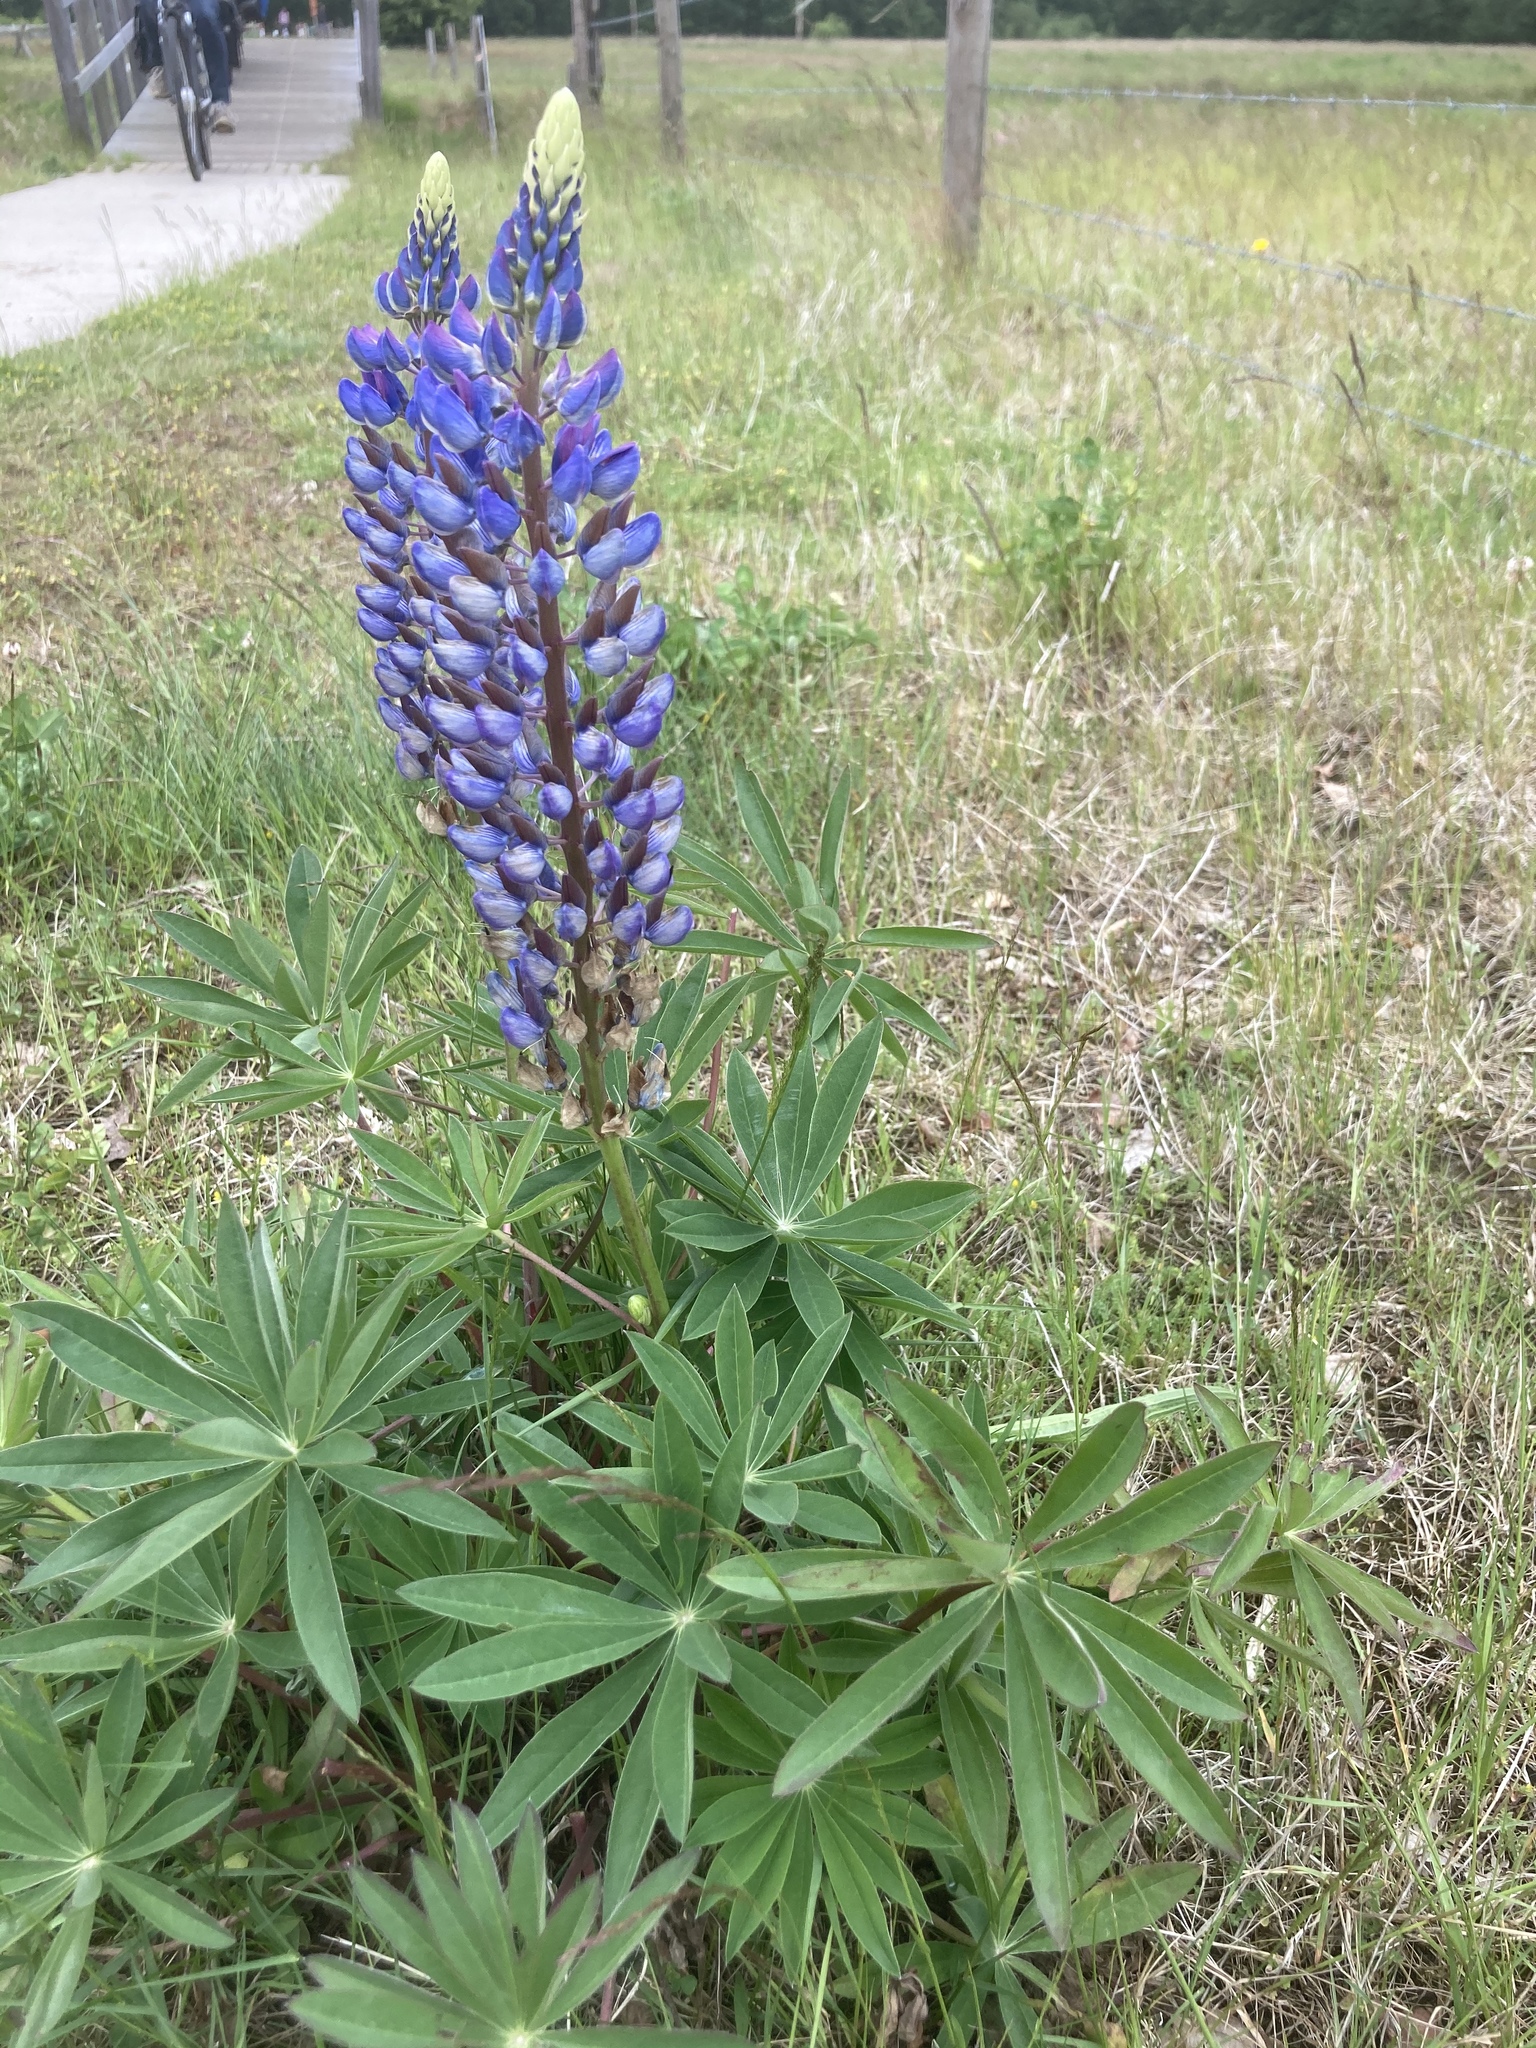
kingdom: Plantae
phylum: Tracheophyta
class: Magnoliopsida
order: Fabales
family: Fabaceae
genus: Lupinus
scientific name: Lupinus polyphyllus
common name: Garden lupin
